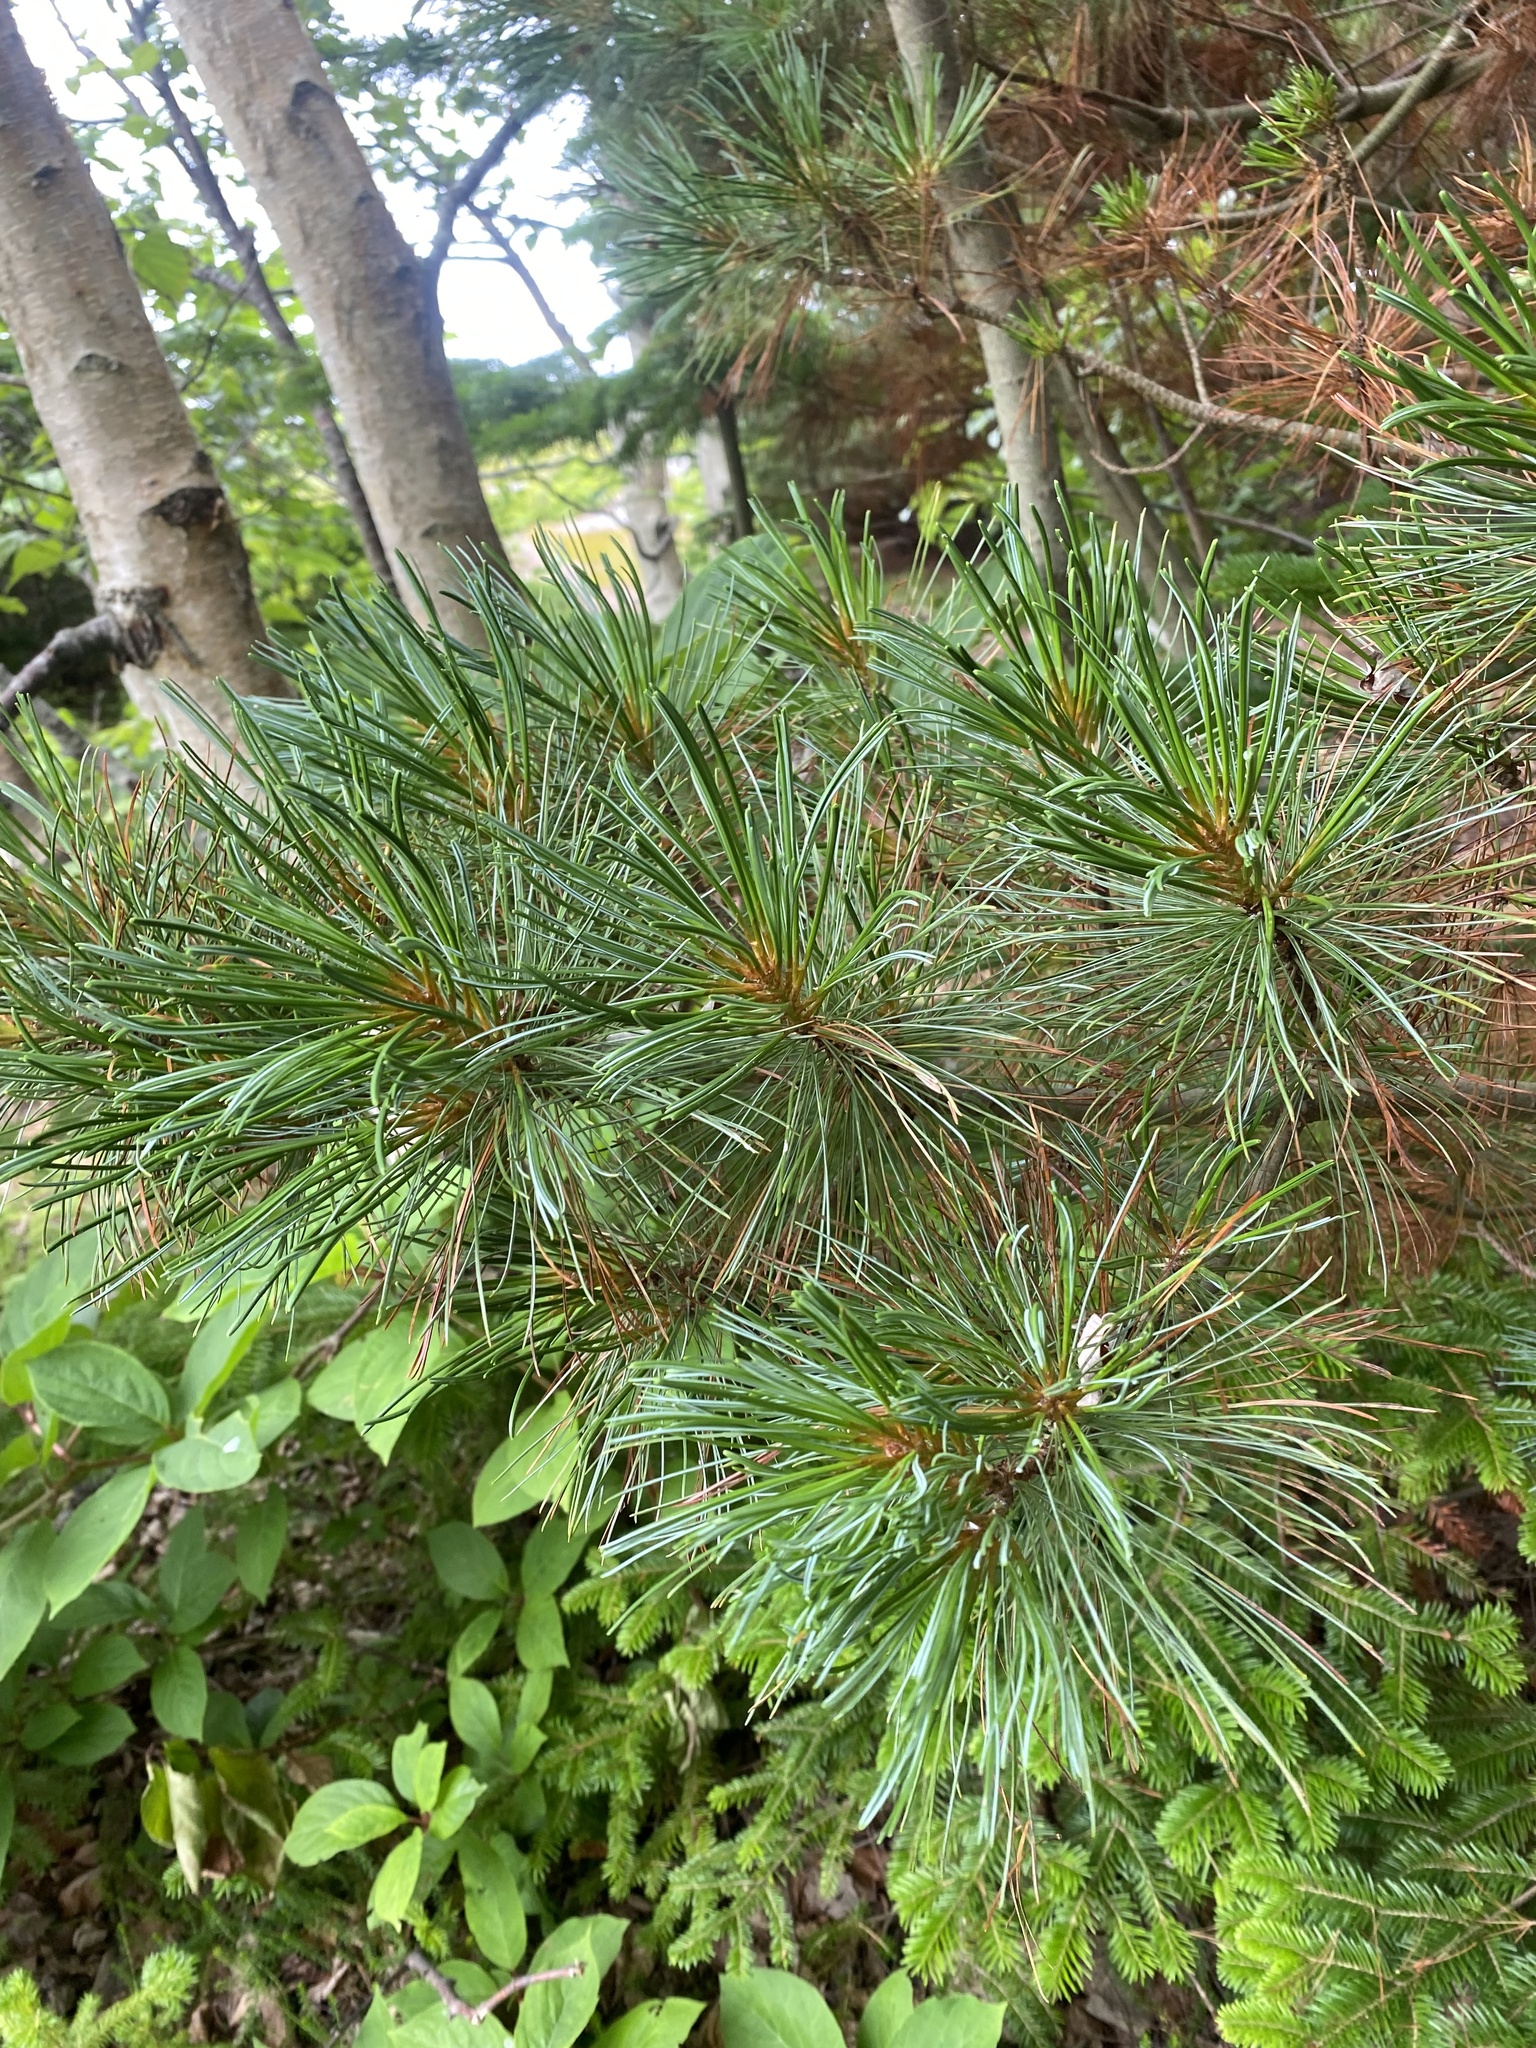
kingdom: Plantae
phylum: Tracheophyta
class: Pinopsida
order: Pinales
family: Pinaceae
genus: Pinus
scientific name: Pinus pumila
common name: Dwarf siberian pine
